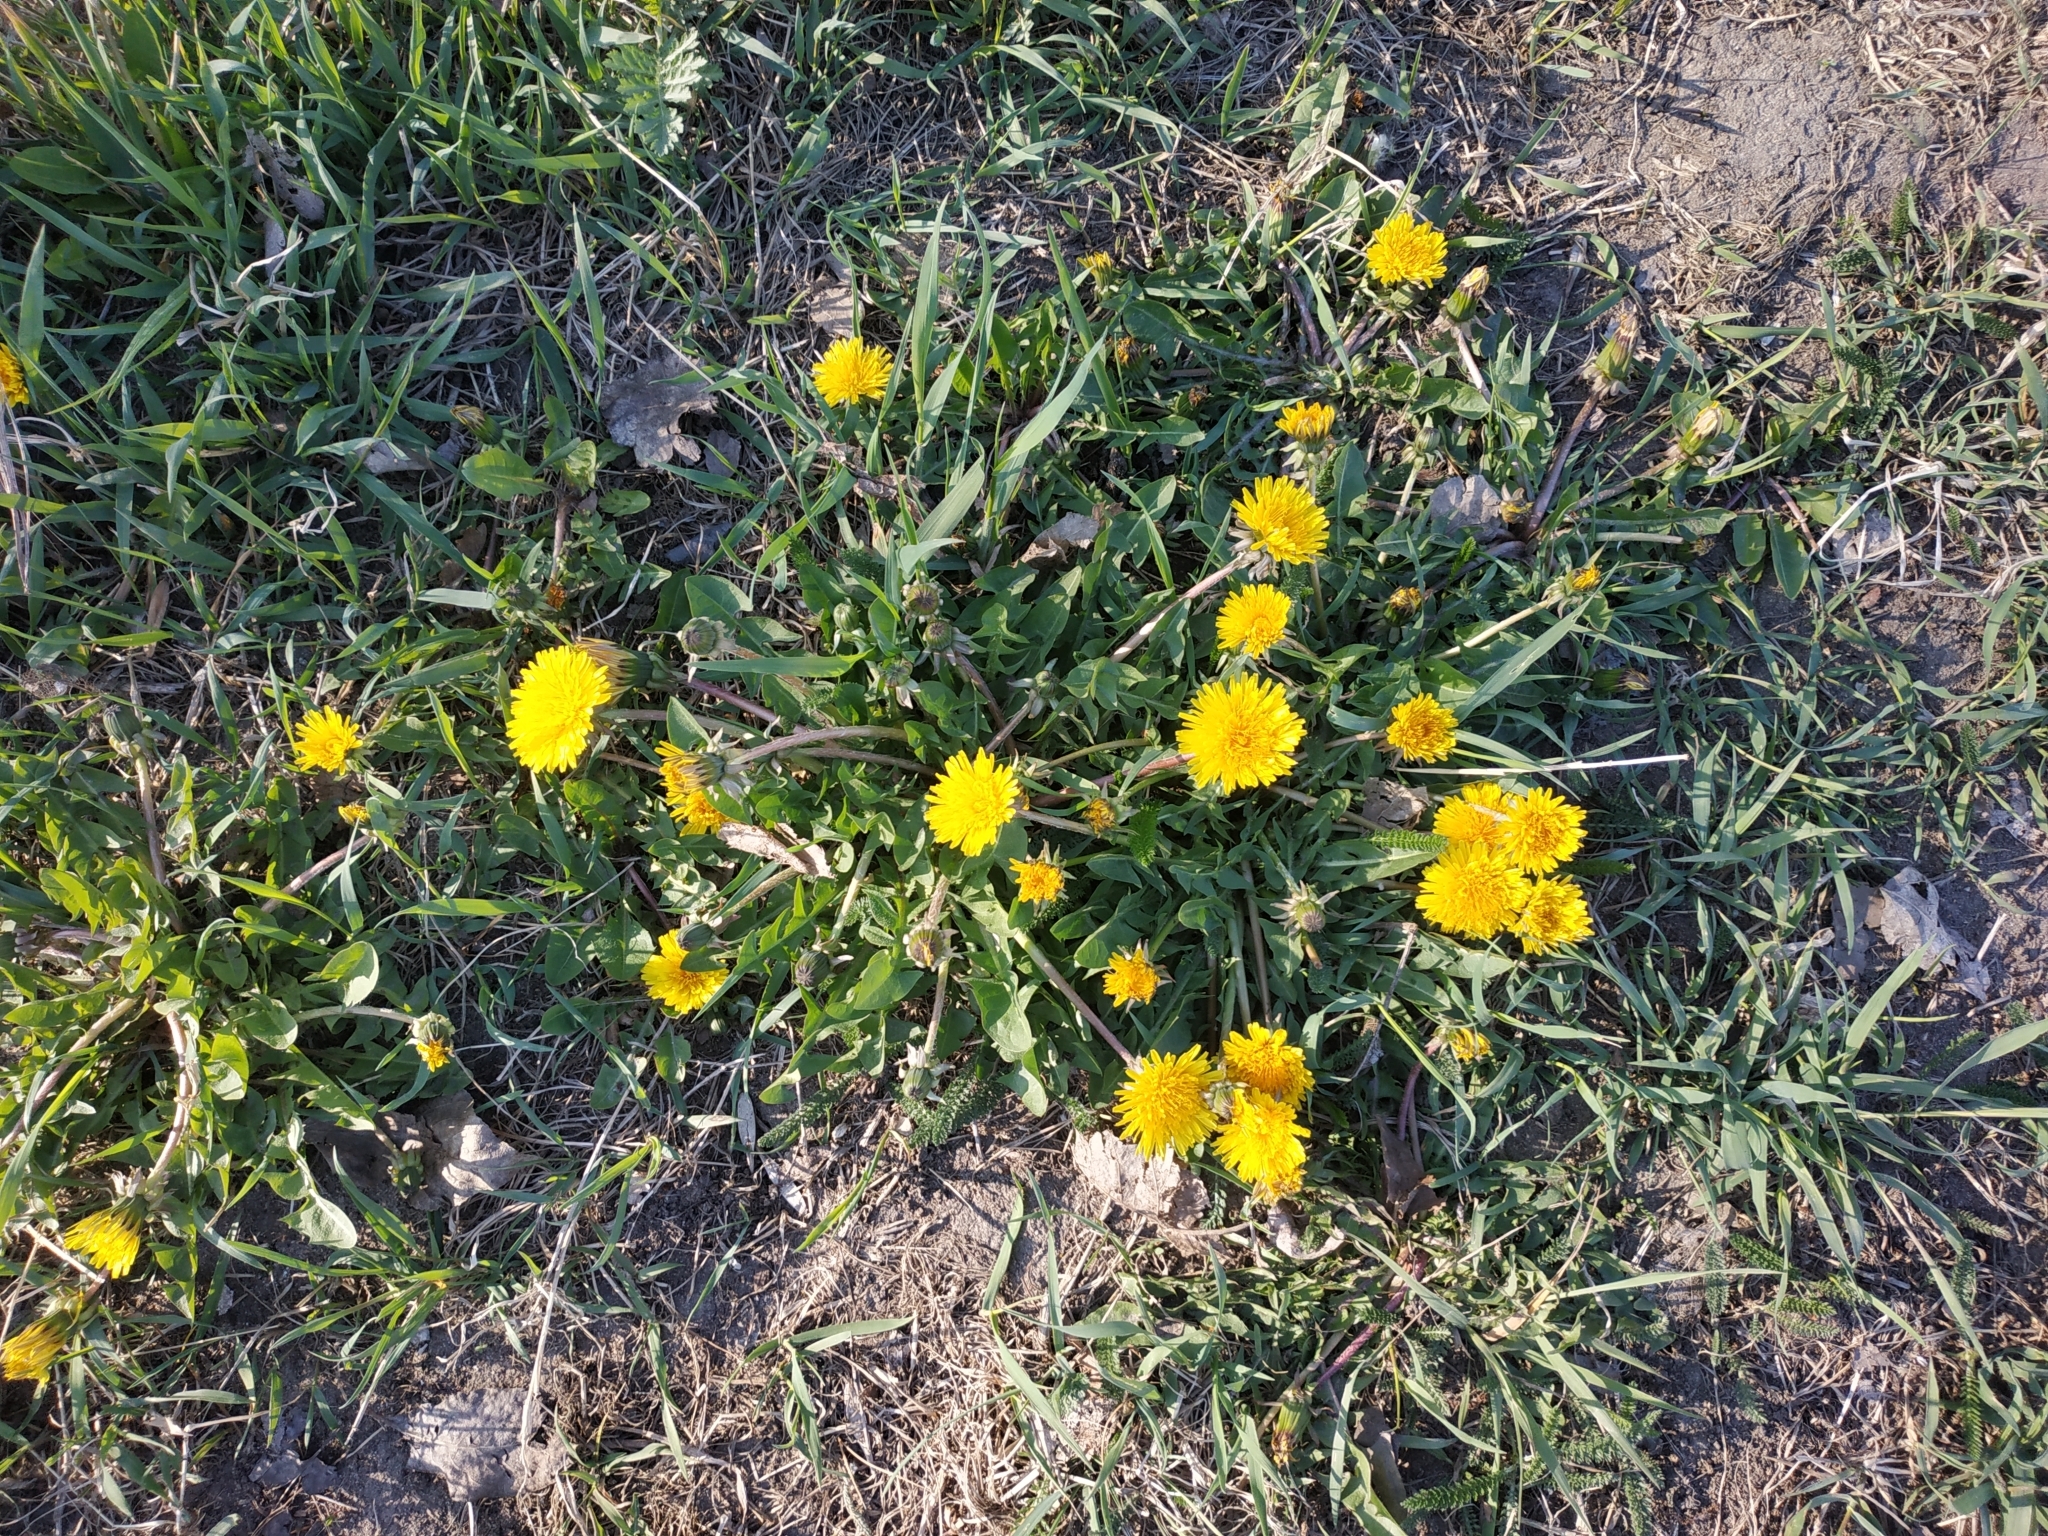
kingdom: Plantae
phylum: Tracheophyta
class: Magnoliopsida
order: Asterales
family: Asteraceae
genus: Taraxacum
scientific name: Taraxacum officinale
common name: Common dandelion
